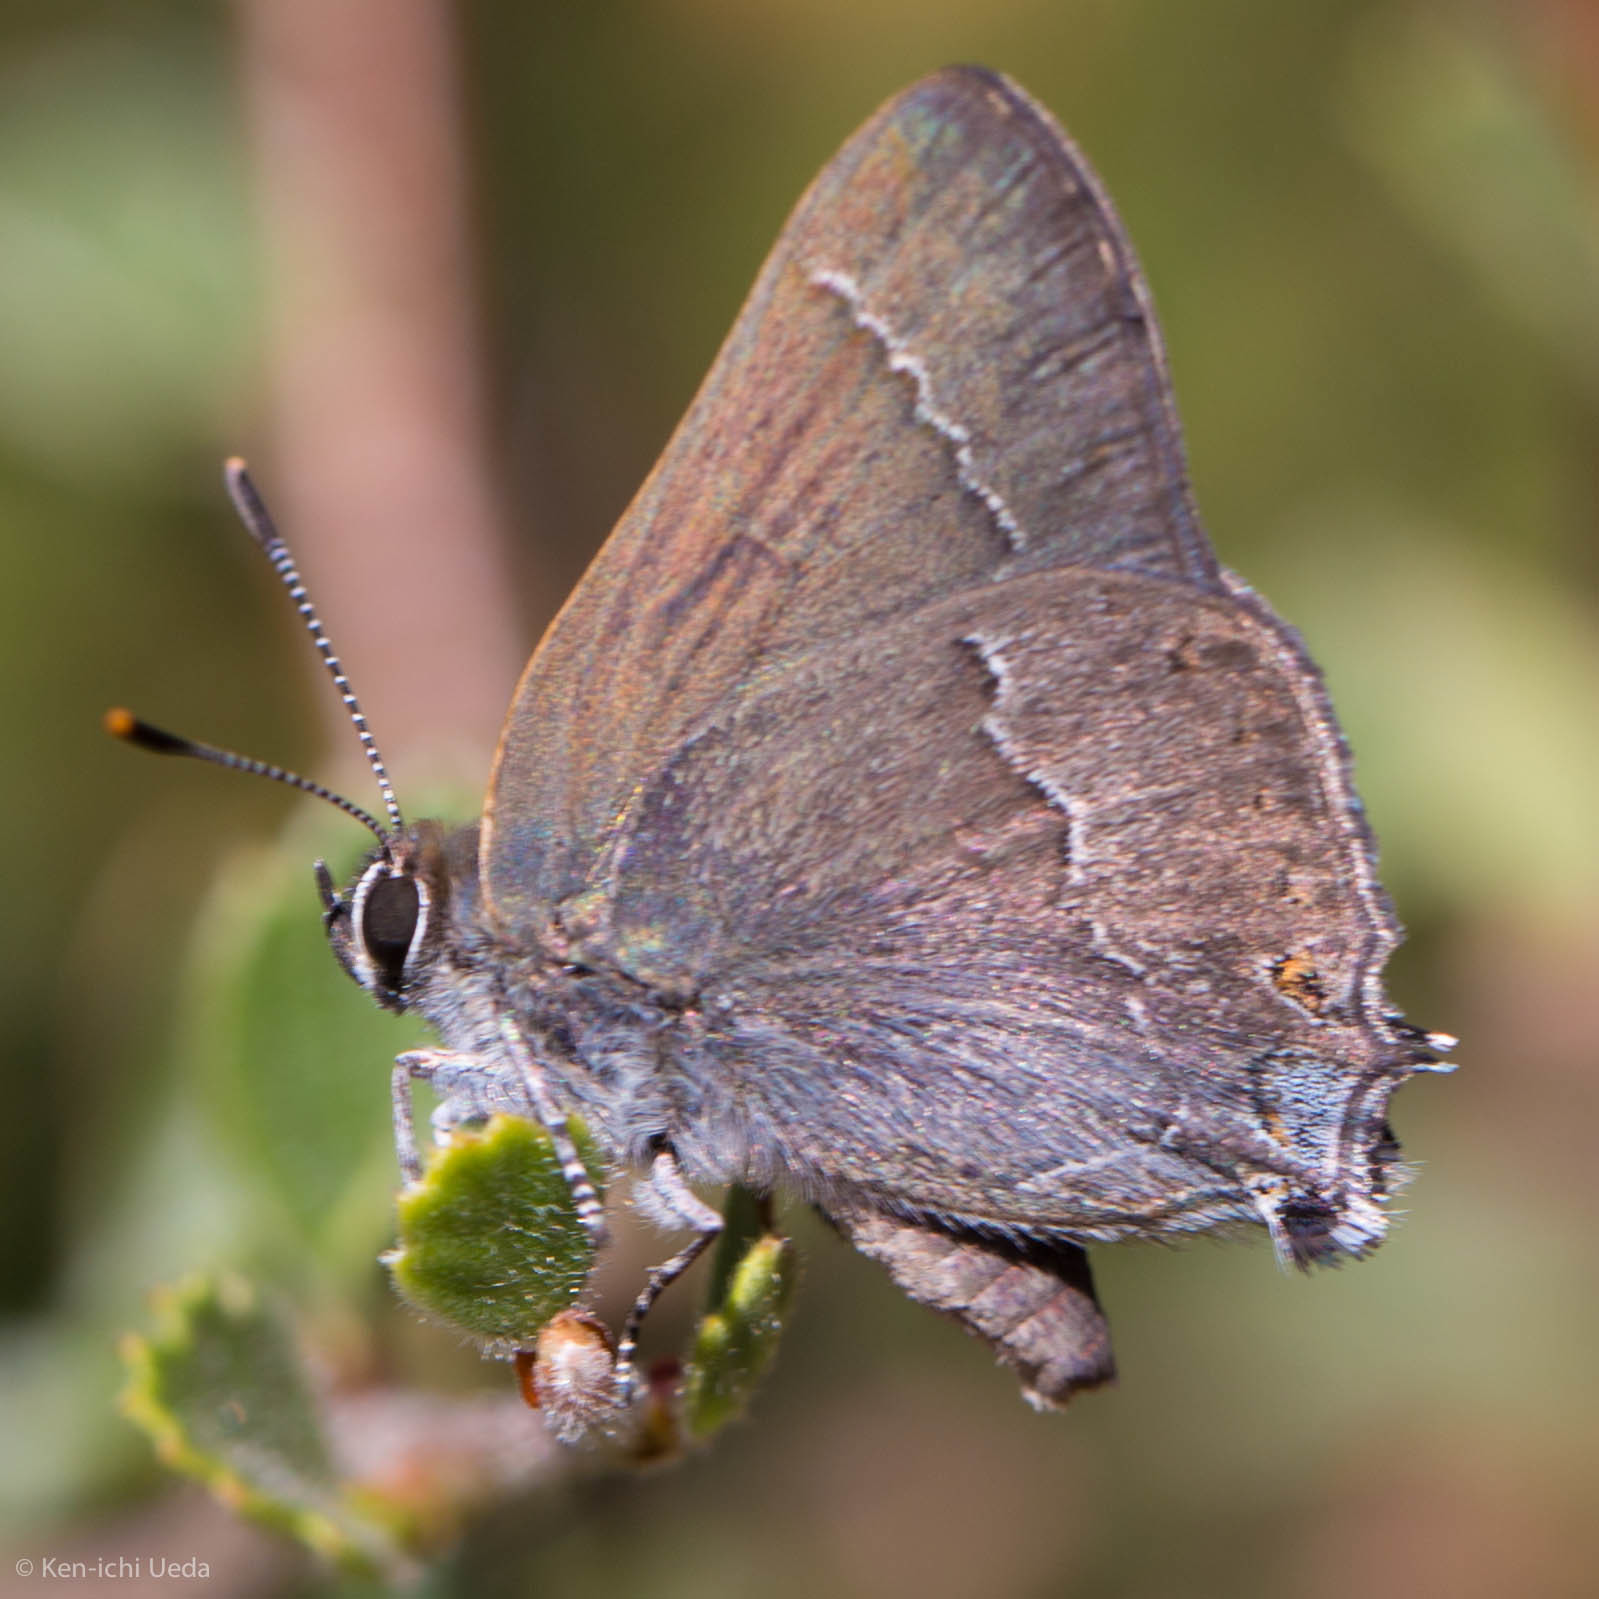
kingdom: Animalia
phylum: Arthropoda
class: Insecta
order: Lepidoptera
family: Lycaenidae
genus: Thecla
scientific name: Thecla tetra
